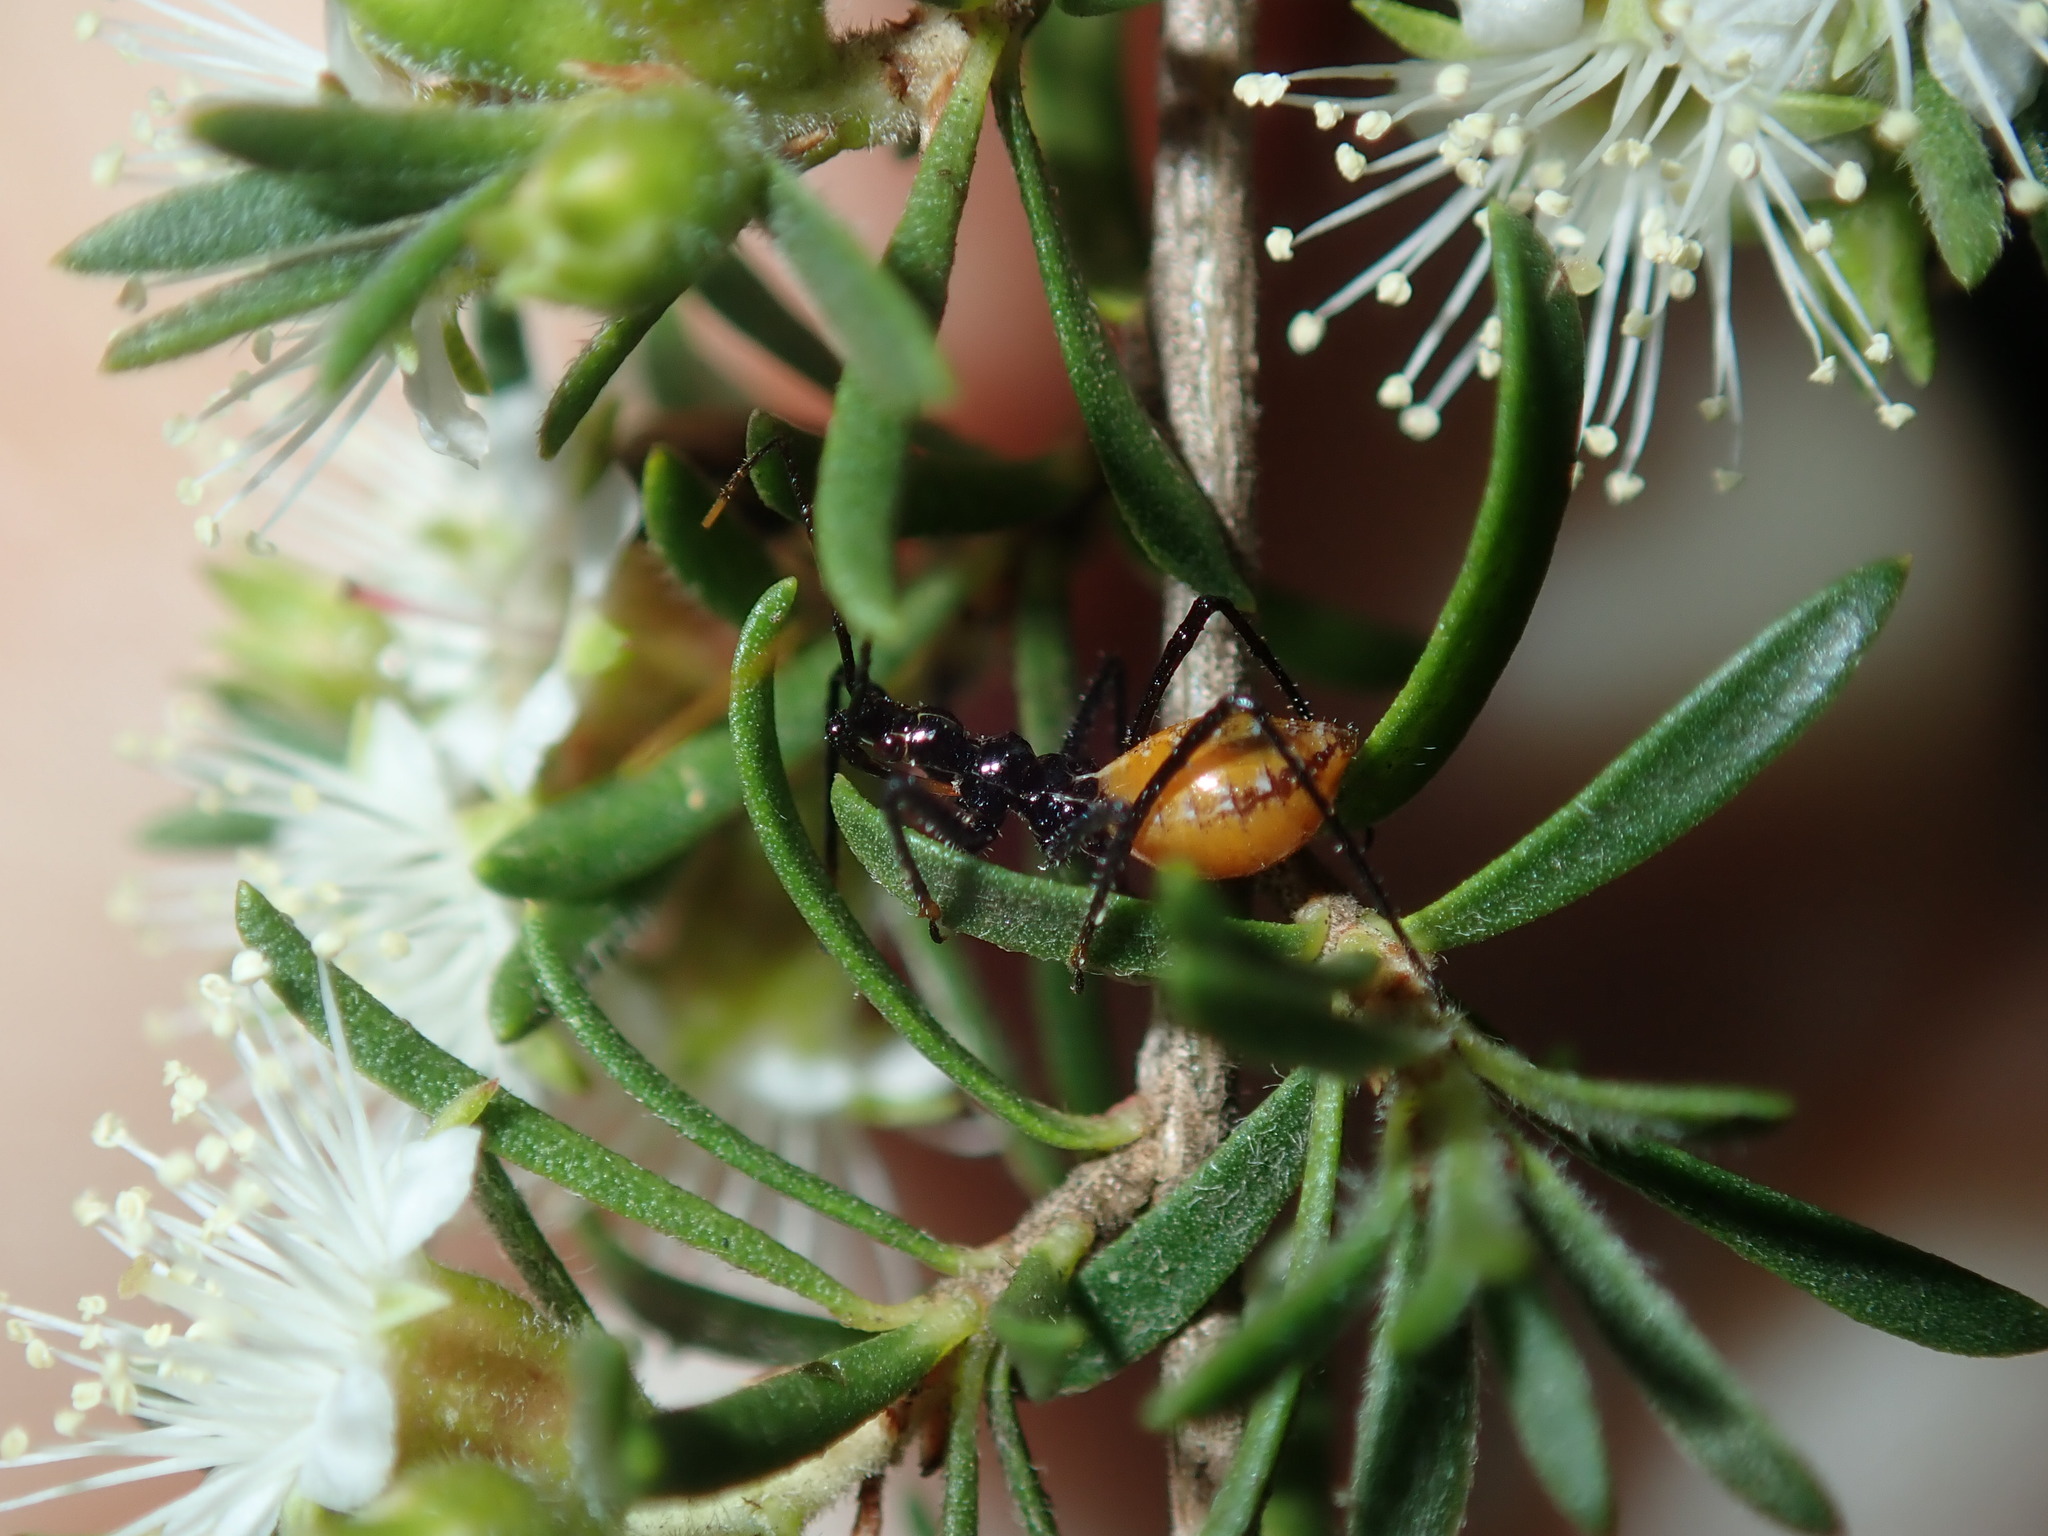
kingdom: Animalia
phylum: Arthropoda
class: Insecta
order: Hemiptera
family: Reduviidae
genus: Pristhesancus
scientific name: Pristhesancus plagipennis
